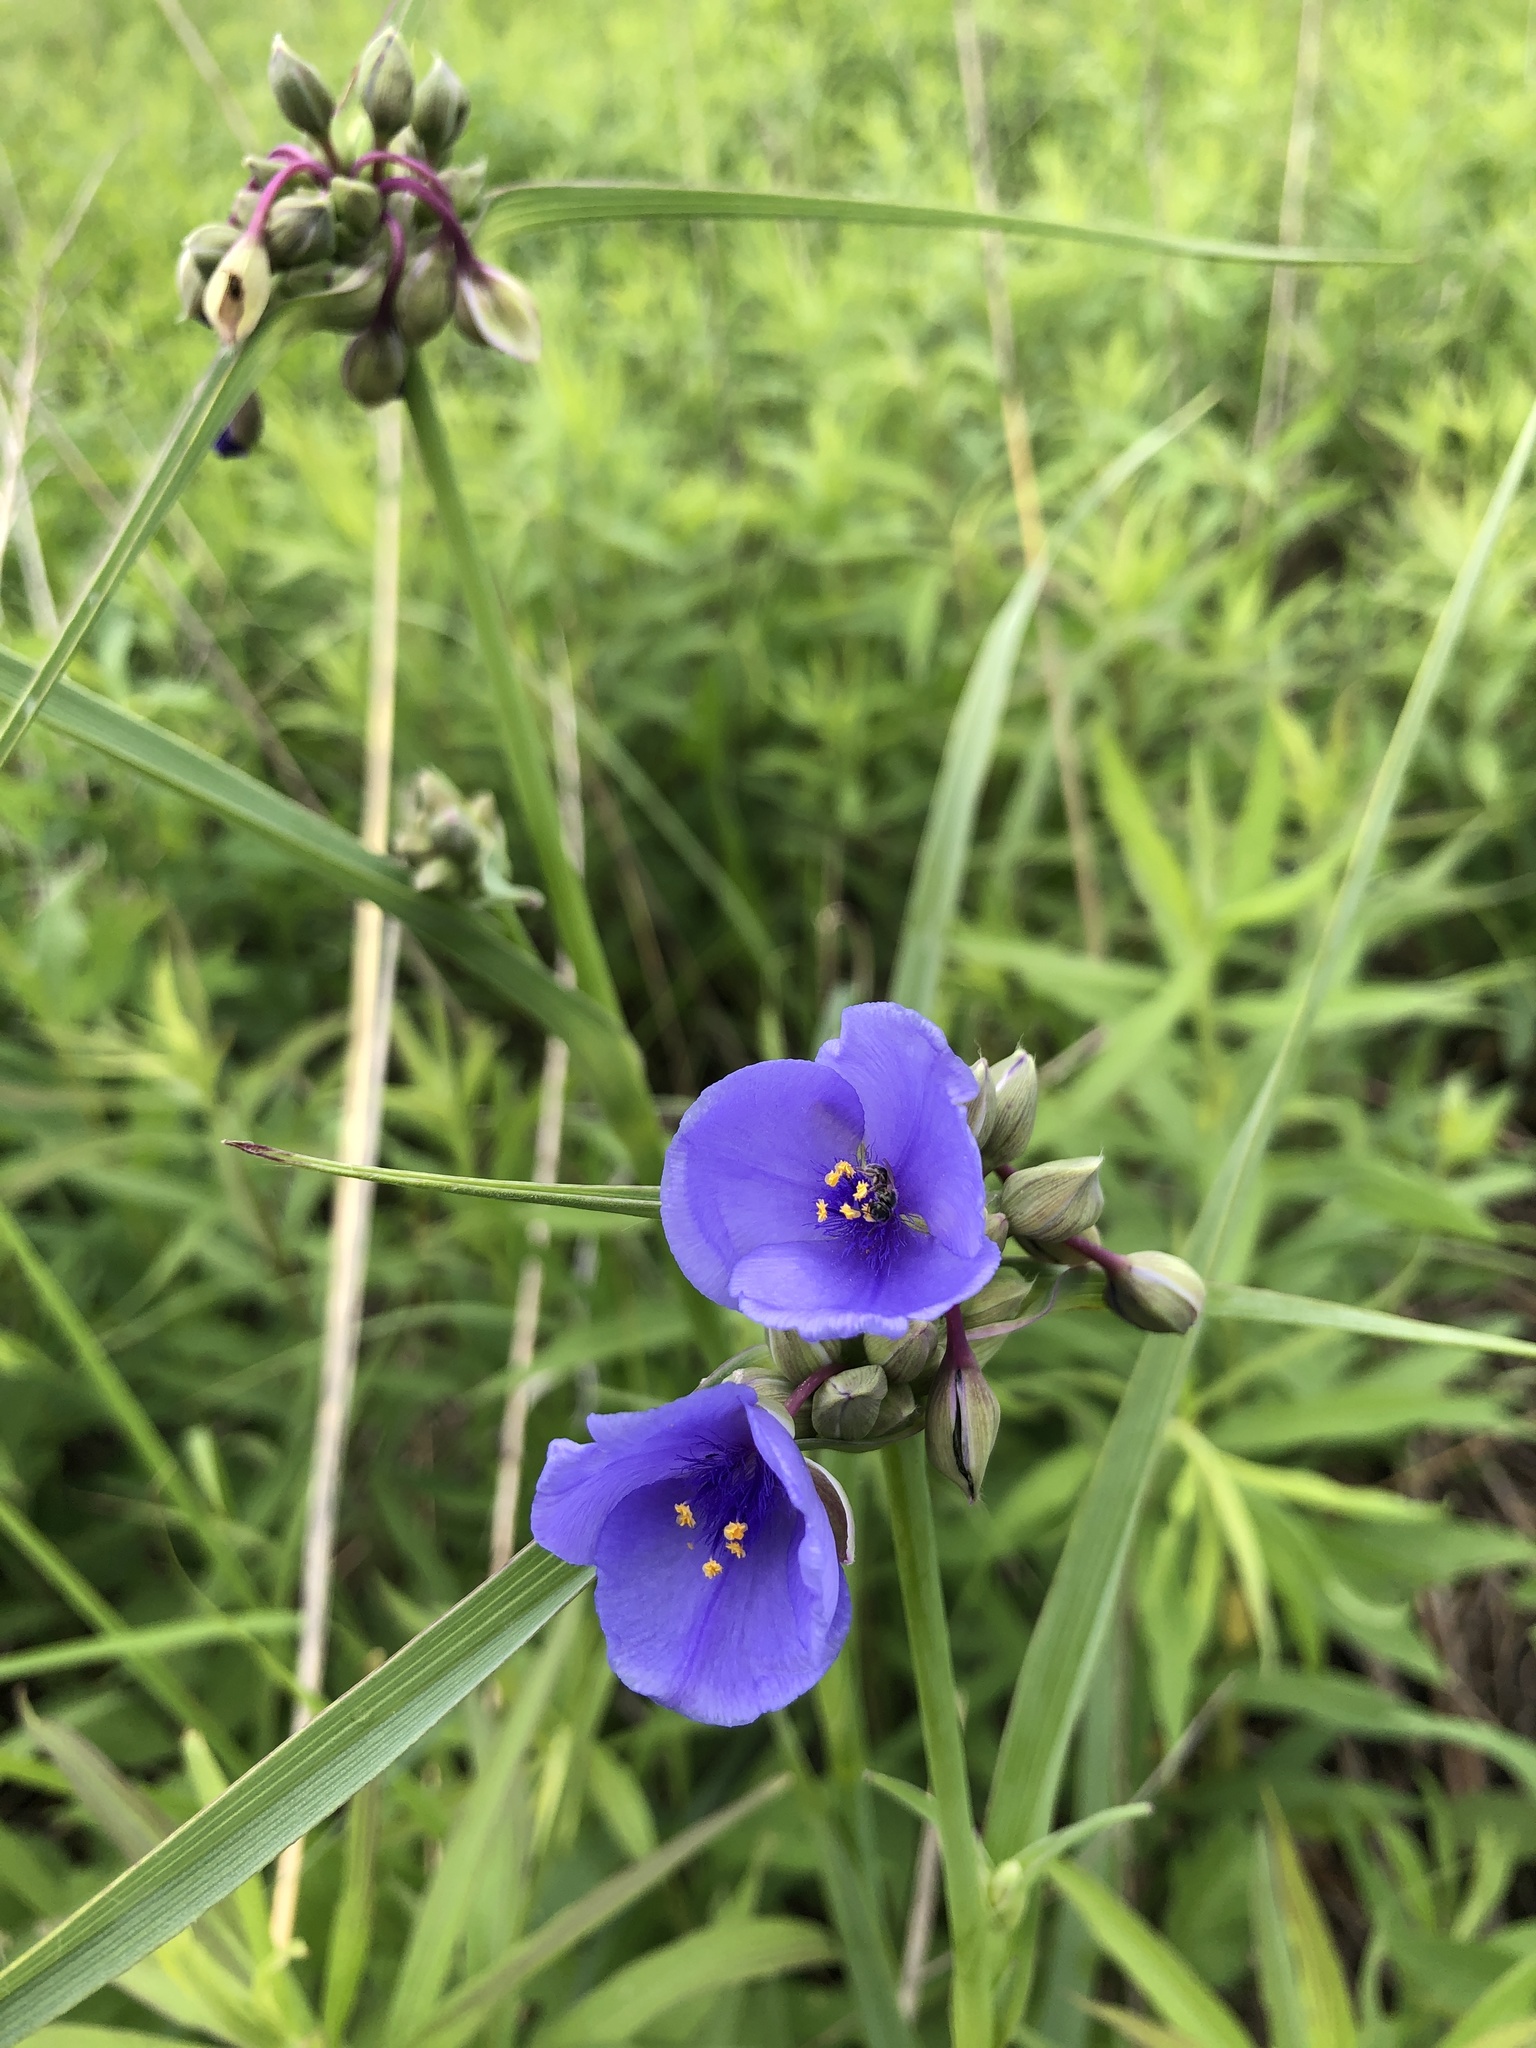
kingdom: Plantae
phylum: Tracheophyta
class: Liliopsida
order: Commelinales
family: Commelinaceae
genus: Tradescantia
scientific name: Tradescantia ohiensis
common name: Ohio spiderwort
